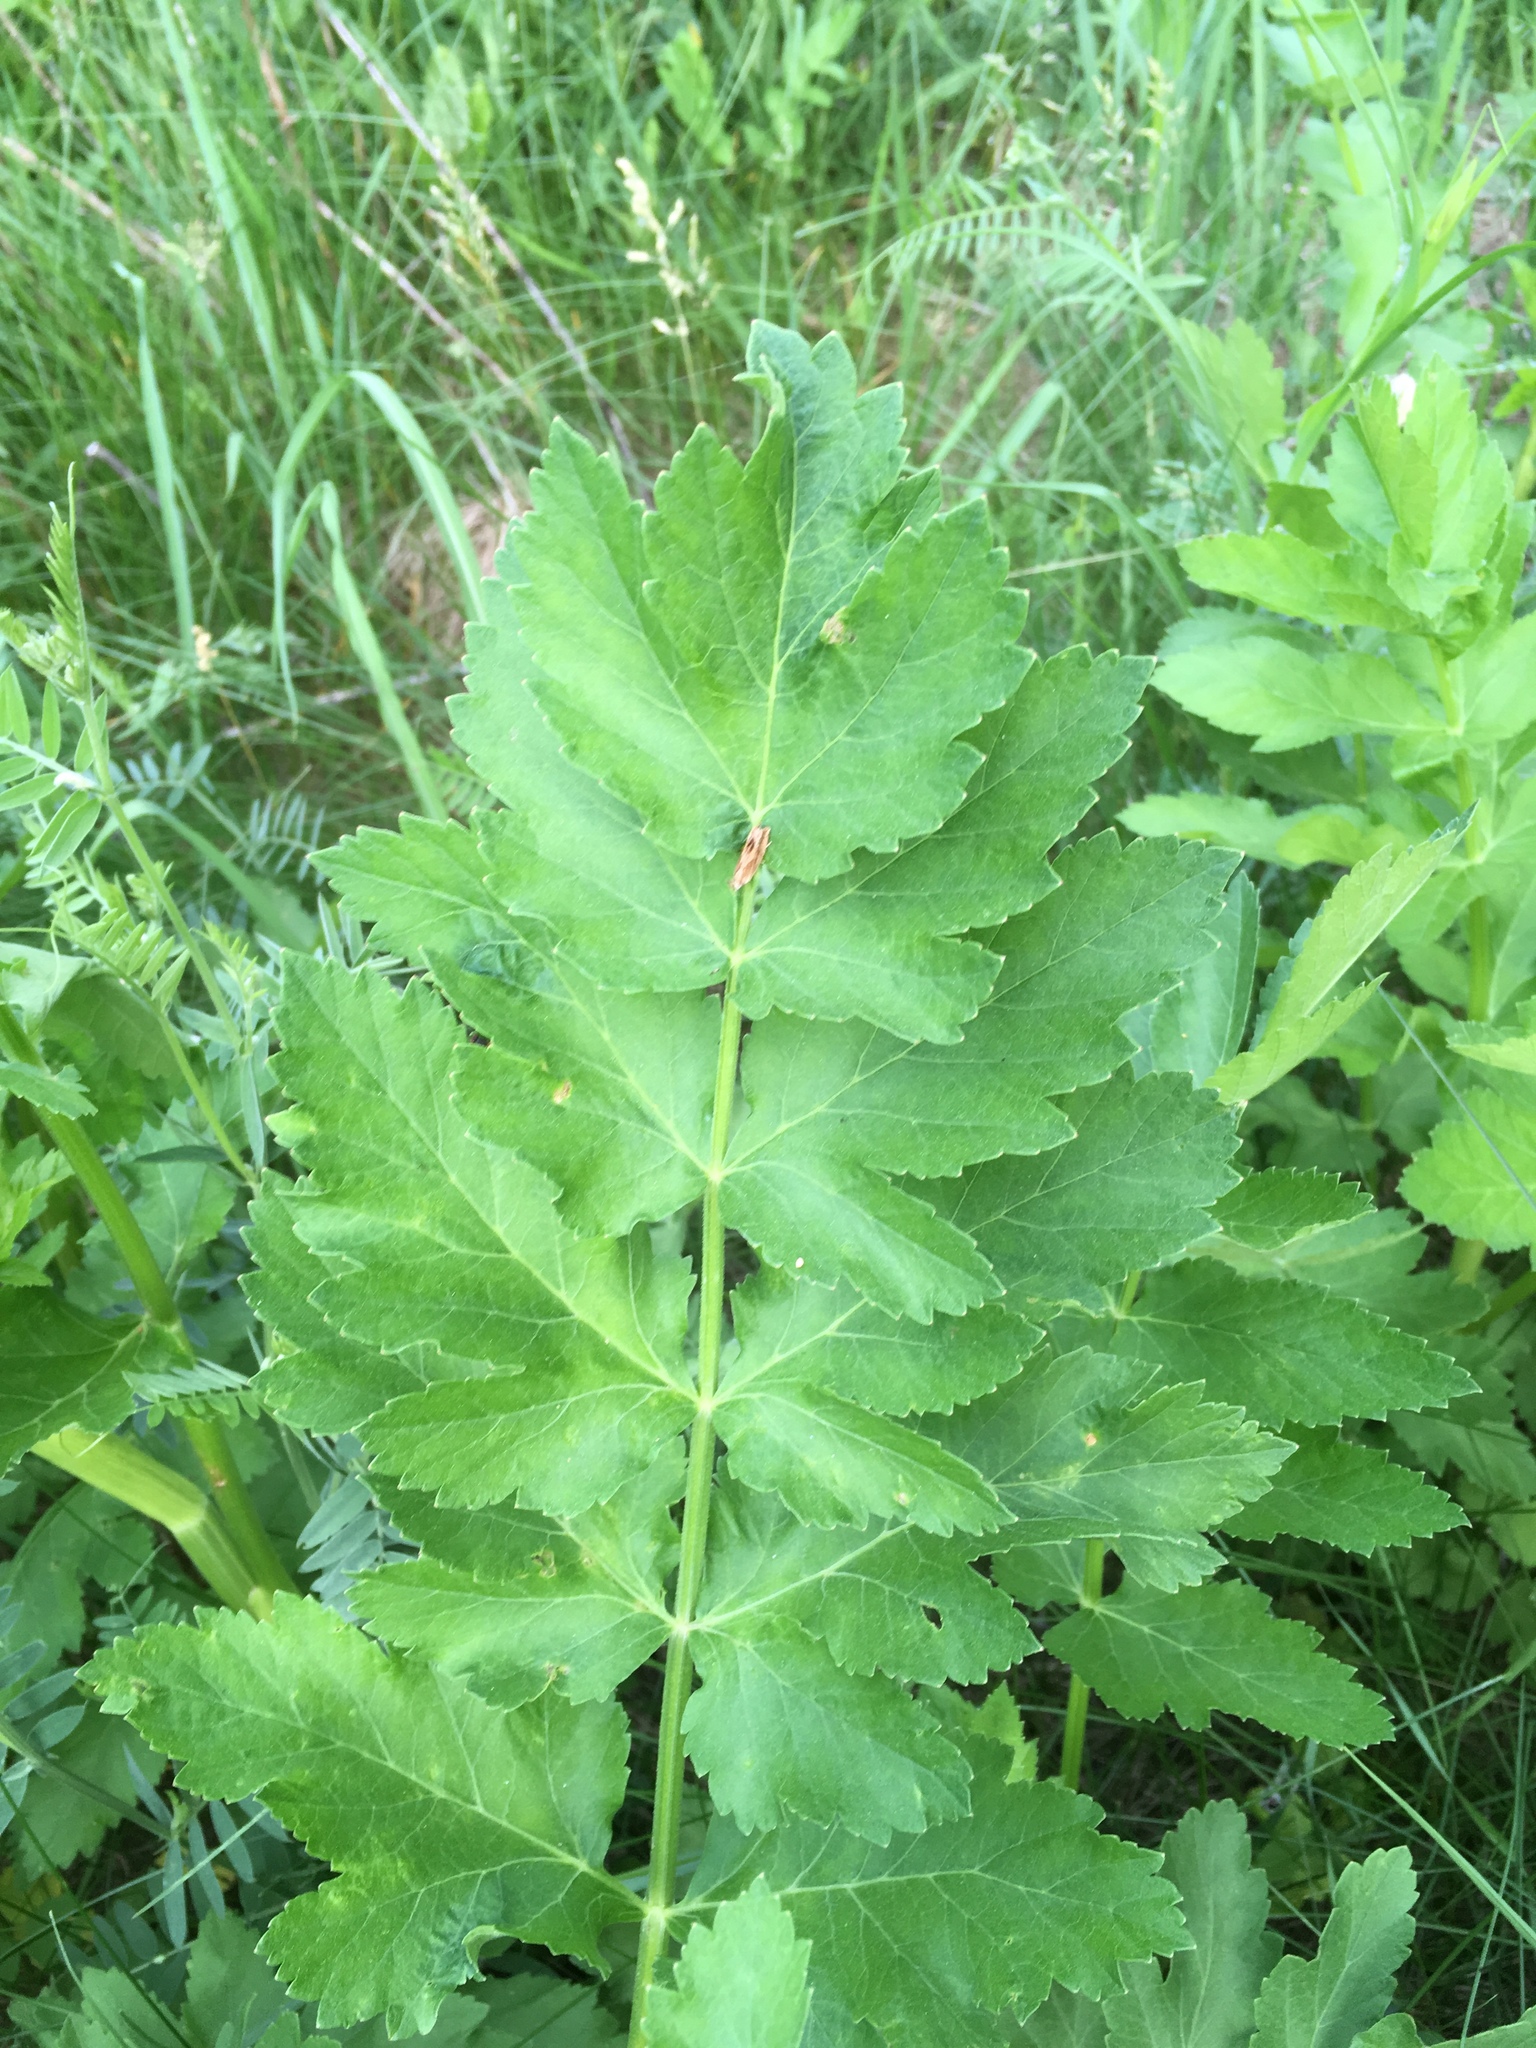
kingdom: Plantae
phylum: Tracheophyta
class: Magnoliopsida
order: Apiales
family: Apiaceae
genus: Pastinaca
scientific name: Pastinaca sativa
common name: Wild parsnip
